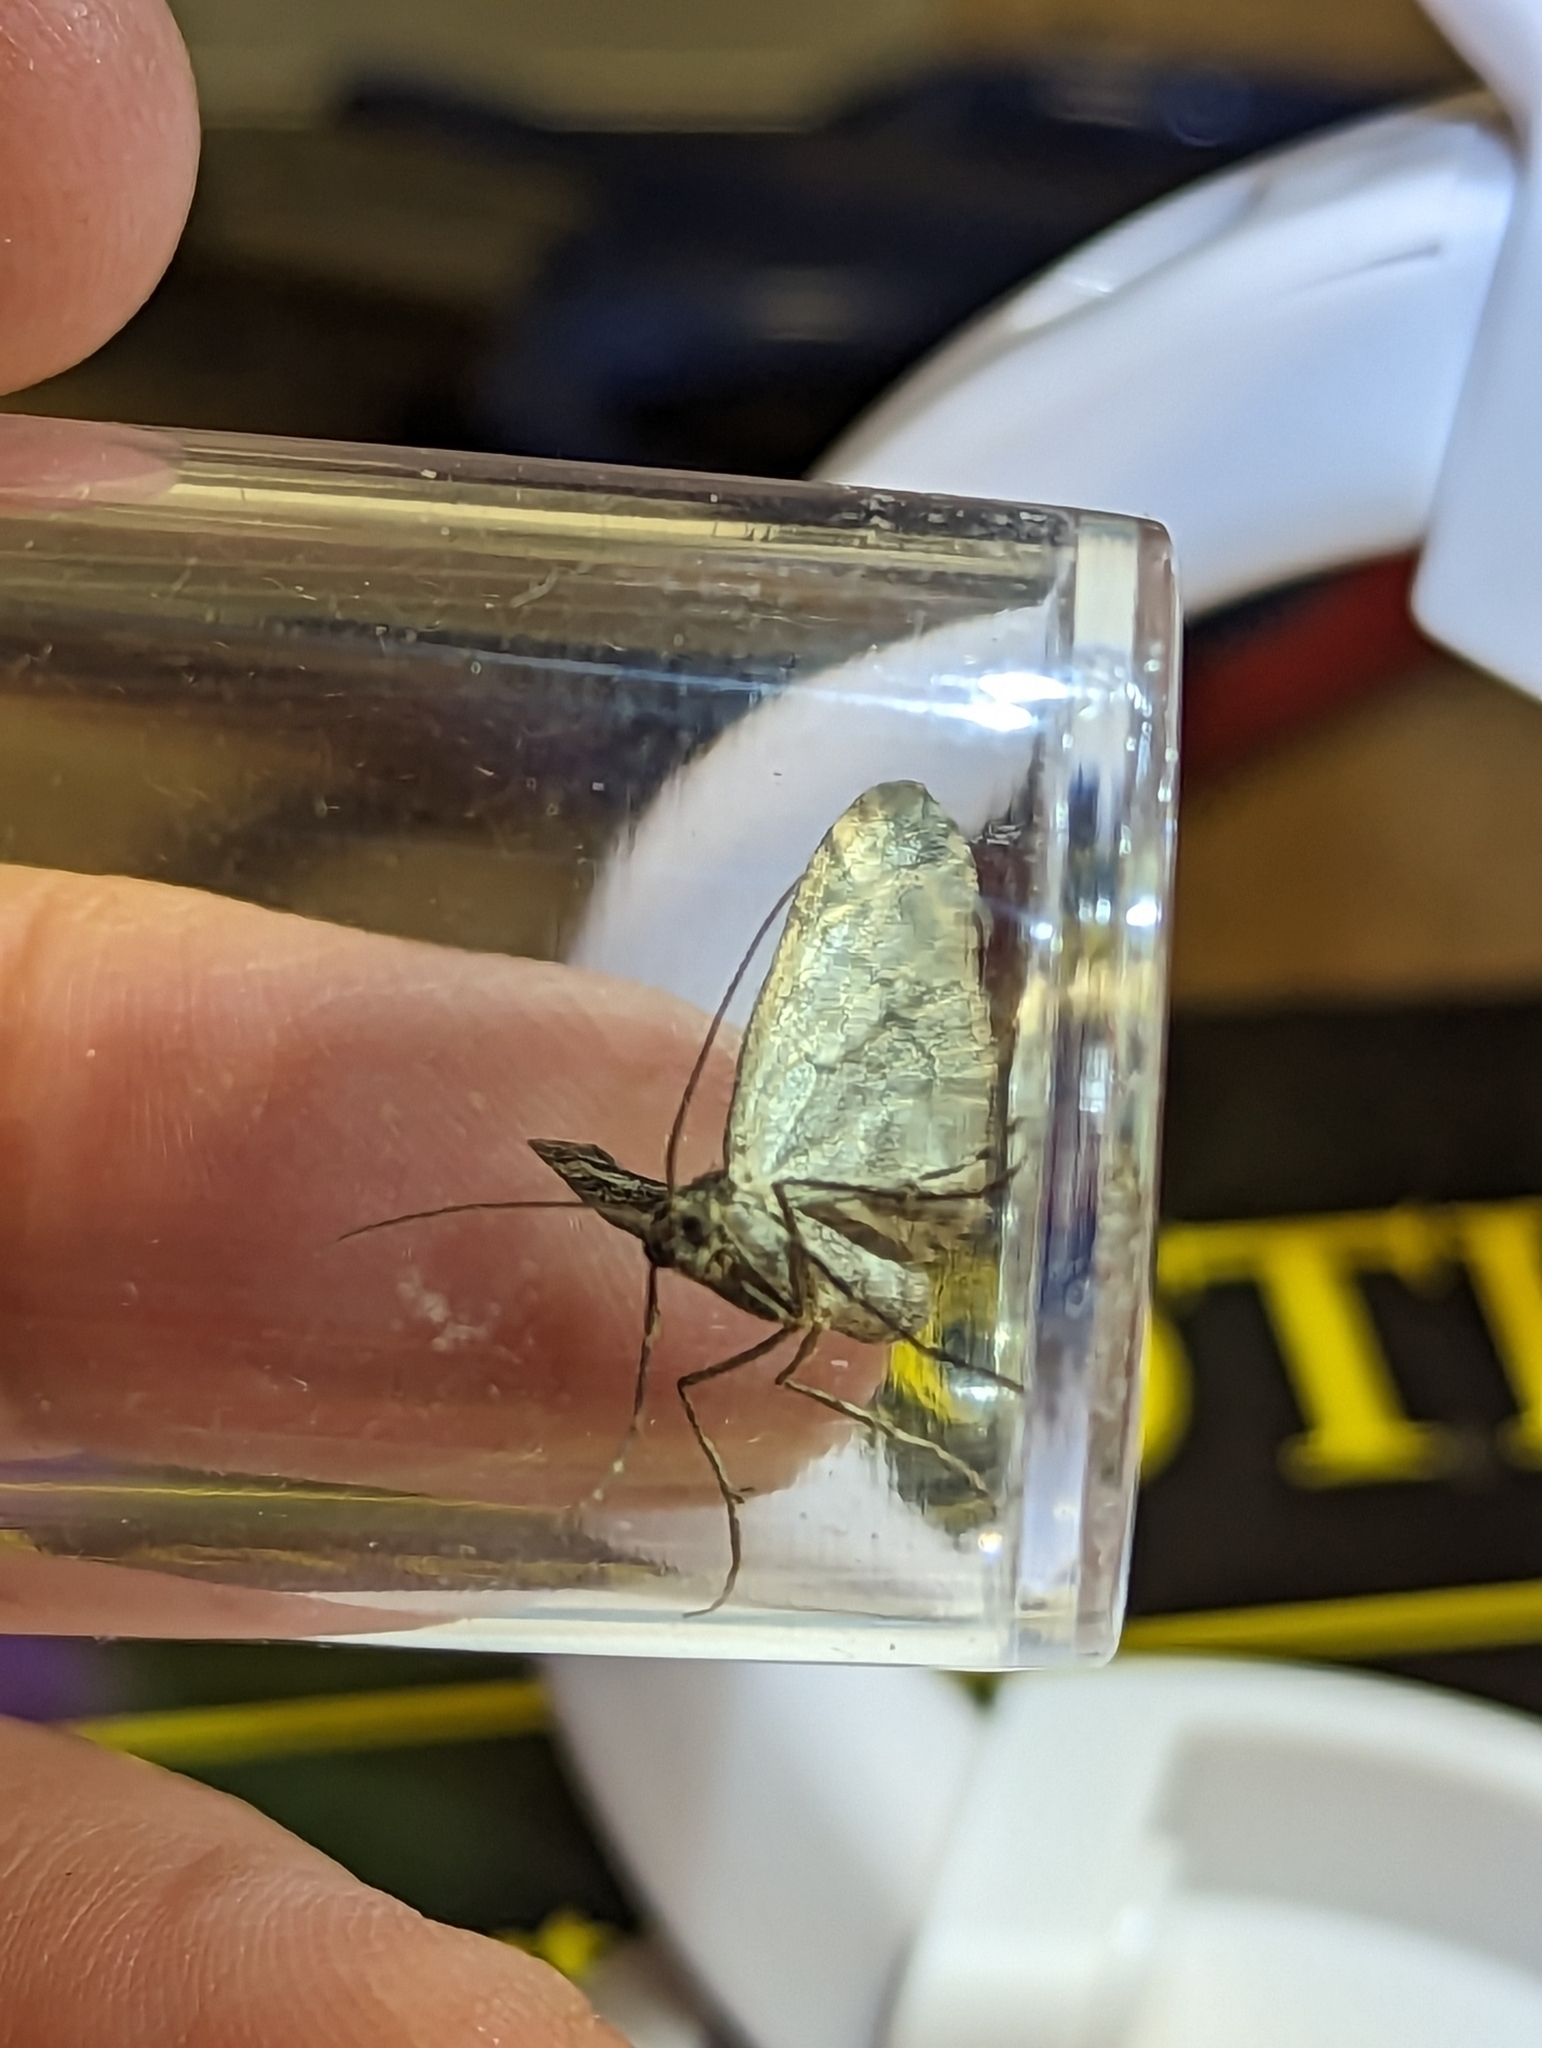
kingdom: Animalia
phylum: Arthropoda
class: Insecta
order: Lepidoptera
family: Geometridae
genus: Dysstroma
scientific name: Dysstroma truncata
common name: Common marbled carpet
